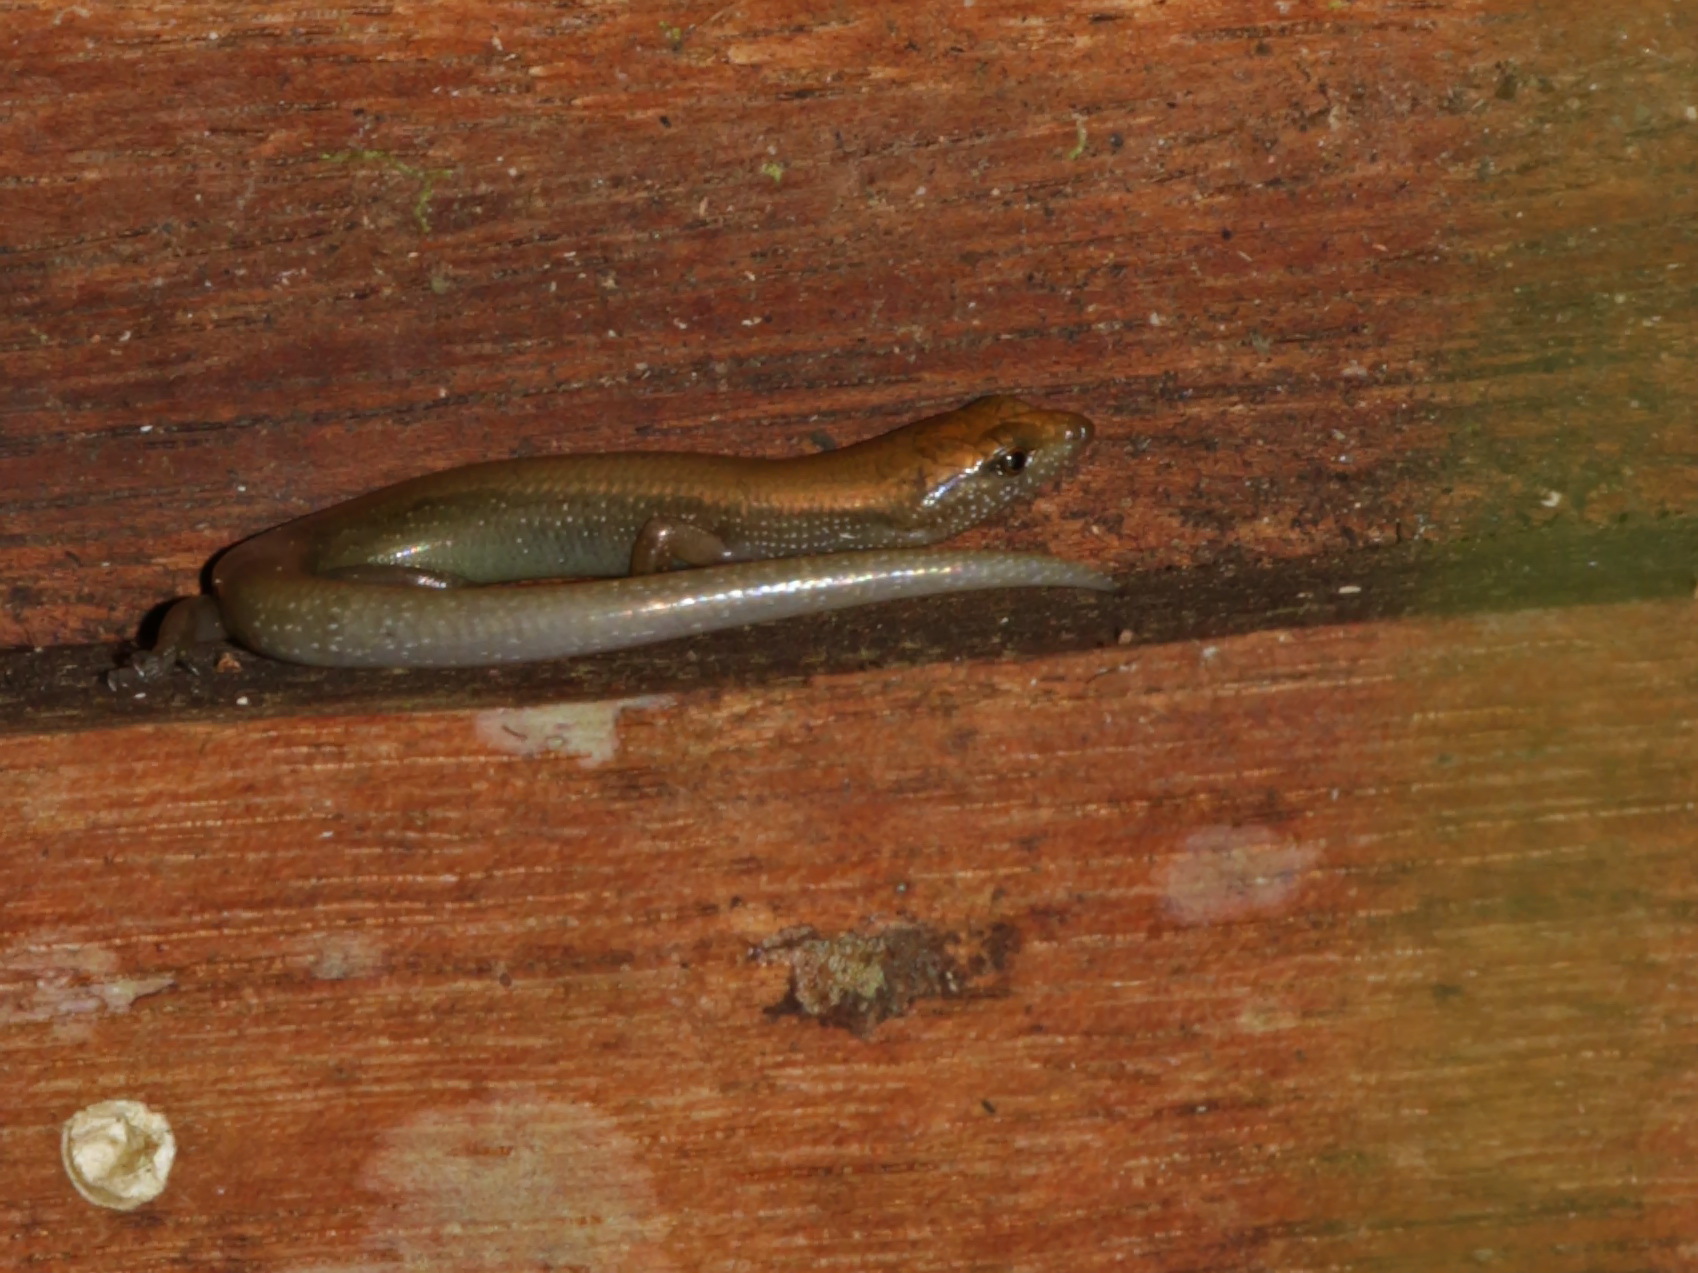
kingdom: Animalia
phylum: Chordata
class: Squamata
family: Scincidae
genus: Lipinia
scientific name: Lipinia surda
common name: Malaysian striped skink
